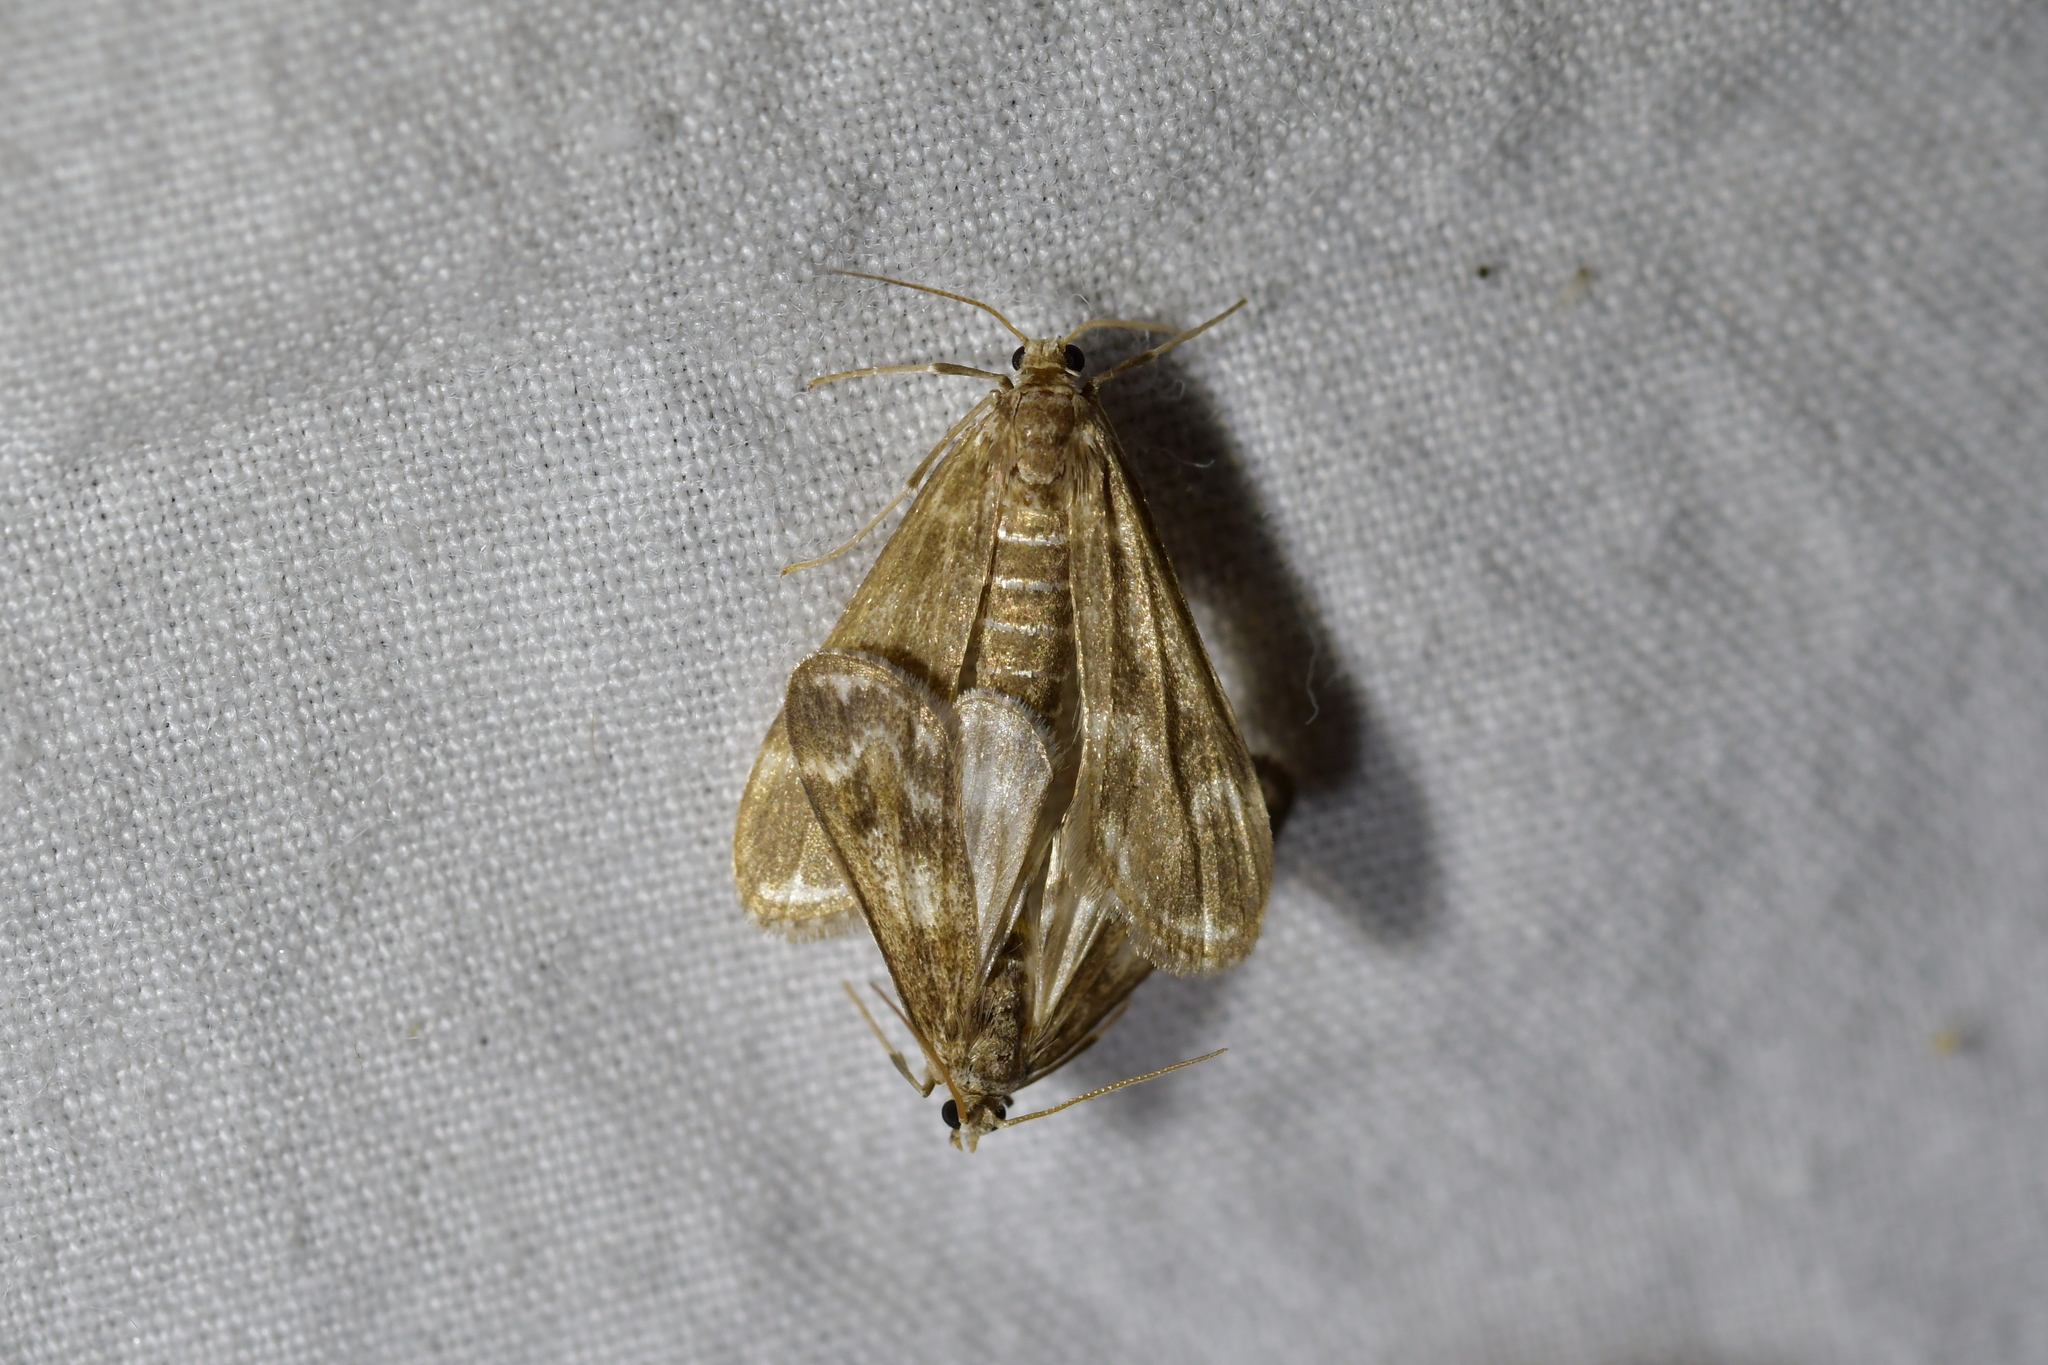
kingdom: Animalia
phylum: Arthropoda
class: Insecta
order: Lepidoptera
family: Crambidae
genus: Hygraula
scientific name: Hygraula nitens
